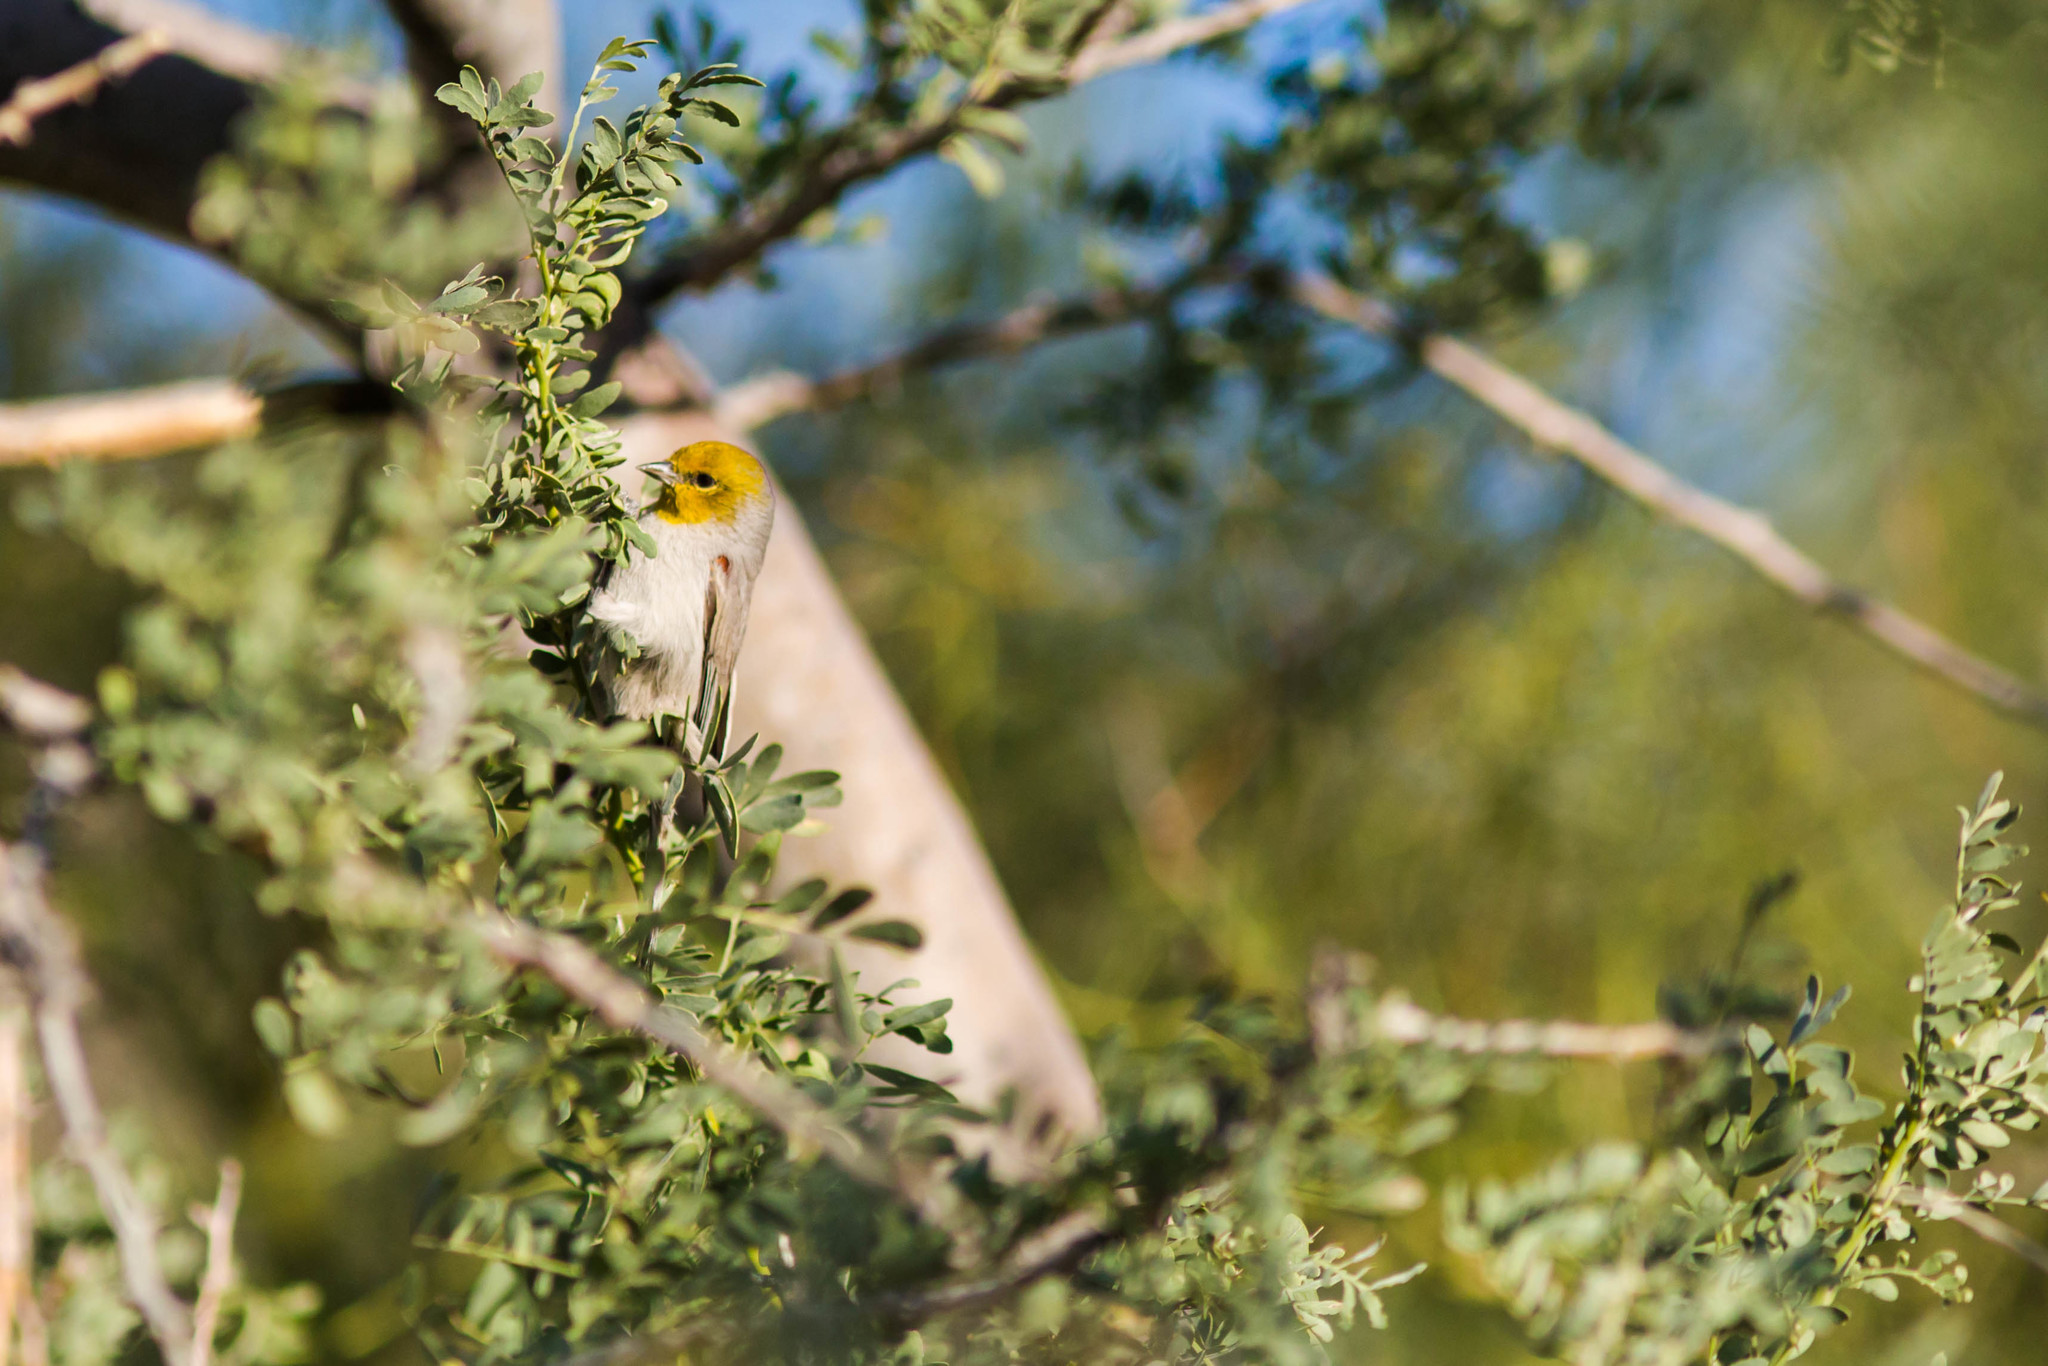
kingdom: Animalia
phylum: Chordata
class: Aves
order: Passeriformes
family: Remizidae
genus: Auriparus
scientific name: Auriparus flaviceps
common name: Verdin
